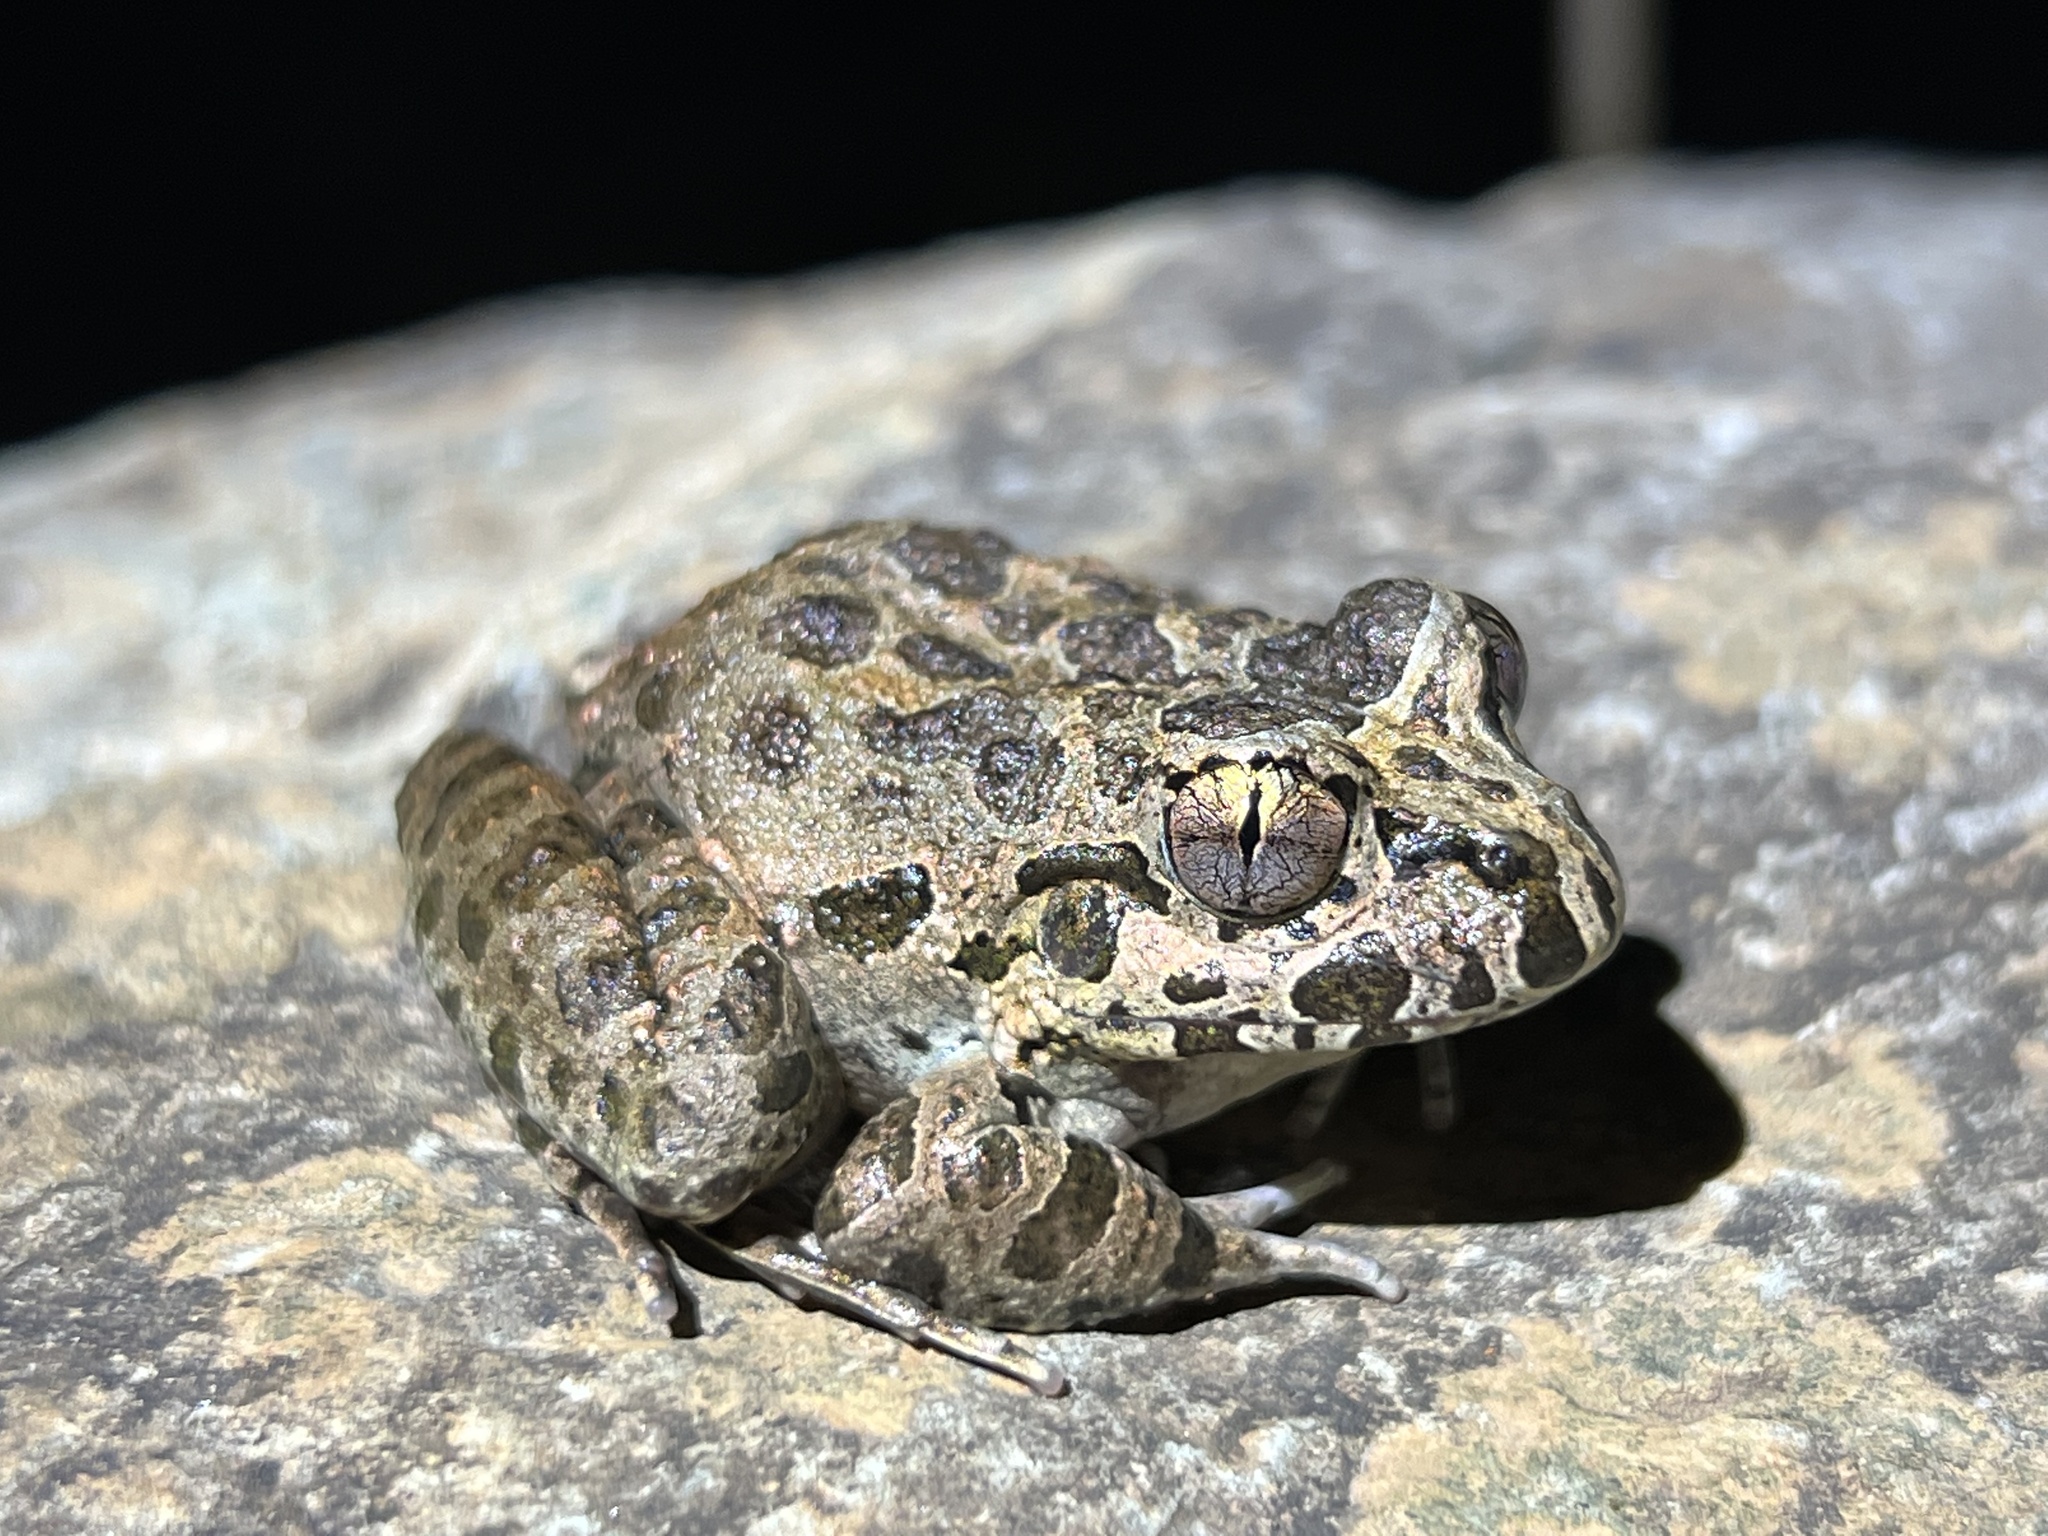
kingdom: Animalia
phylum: Chordata
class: Amphibia
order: Anura
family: Alsodidae
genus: Limnomedusa
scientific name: Limnomedusa macroglossa
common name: Rapids frog
